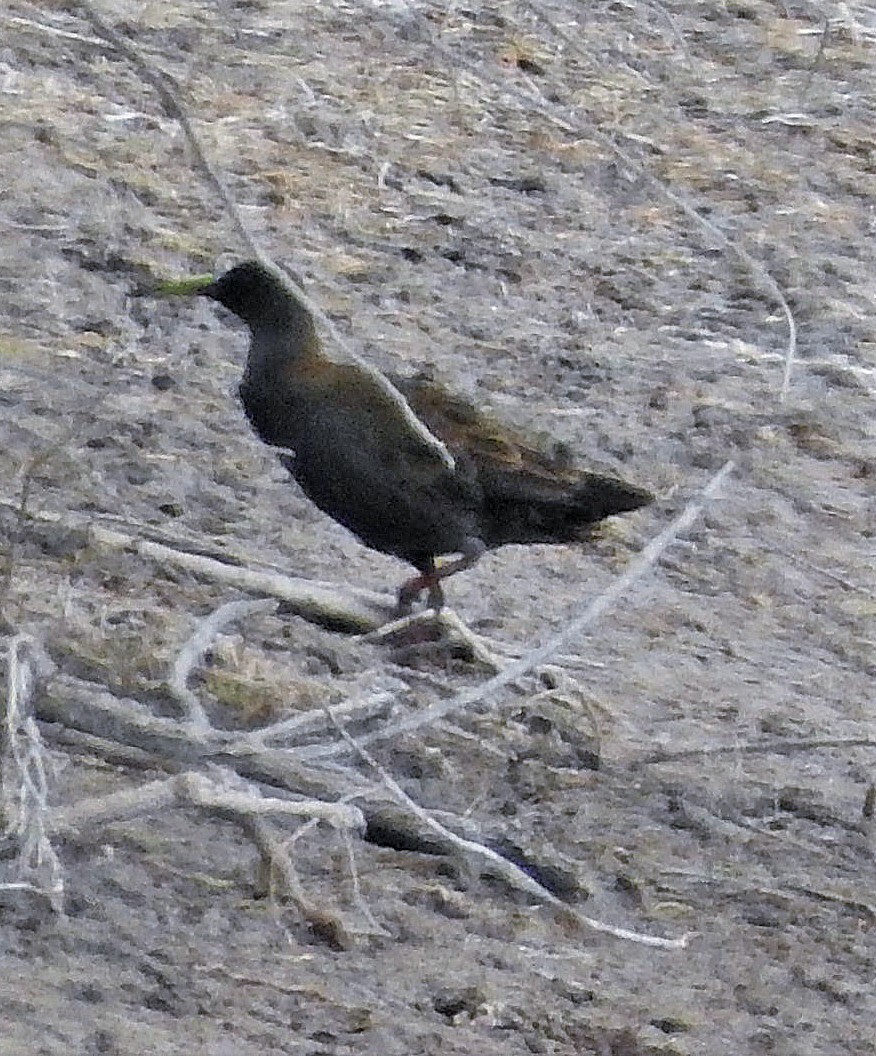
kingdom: Animalia
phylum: Chordata
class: Aves
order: Gruiformes
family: Rallidae
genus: Pardirallus
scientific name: Pardirallus sanguinolentus
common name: Plumbeous rail
